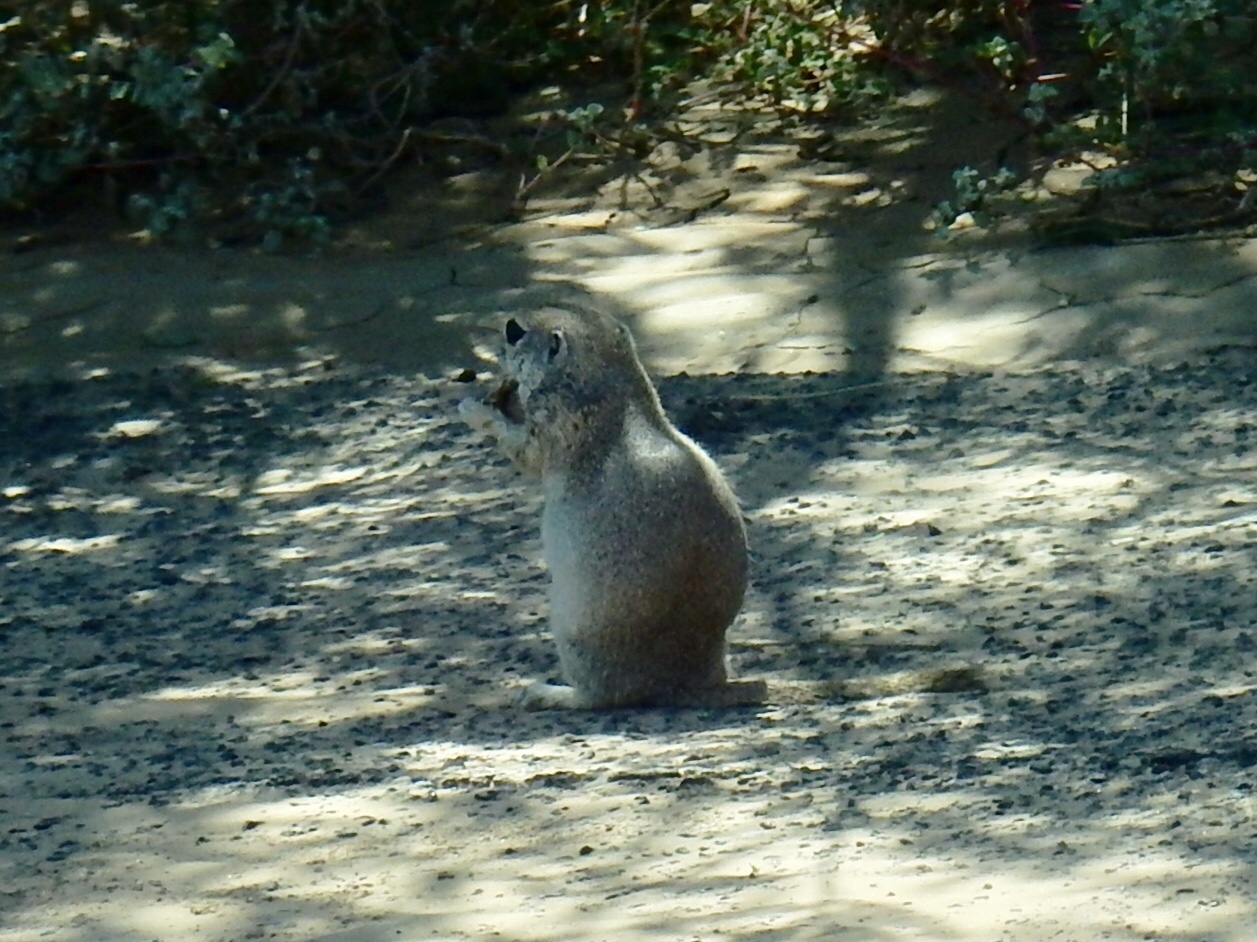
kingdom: Animalia
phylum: Chordata
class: Mammalia
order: Rodentia
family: Sciuridae
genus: Xerospermophilus
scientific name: Xerospermophilus tereticaudus
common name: Round-tailed ground squirrel
